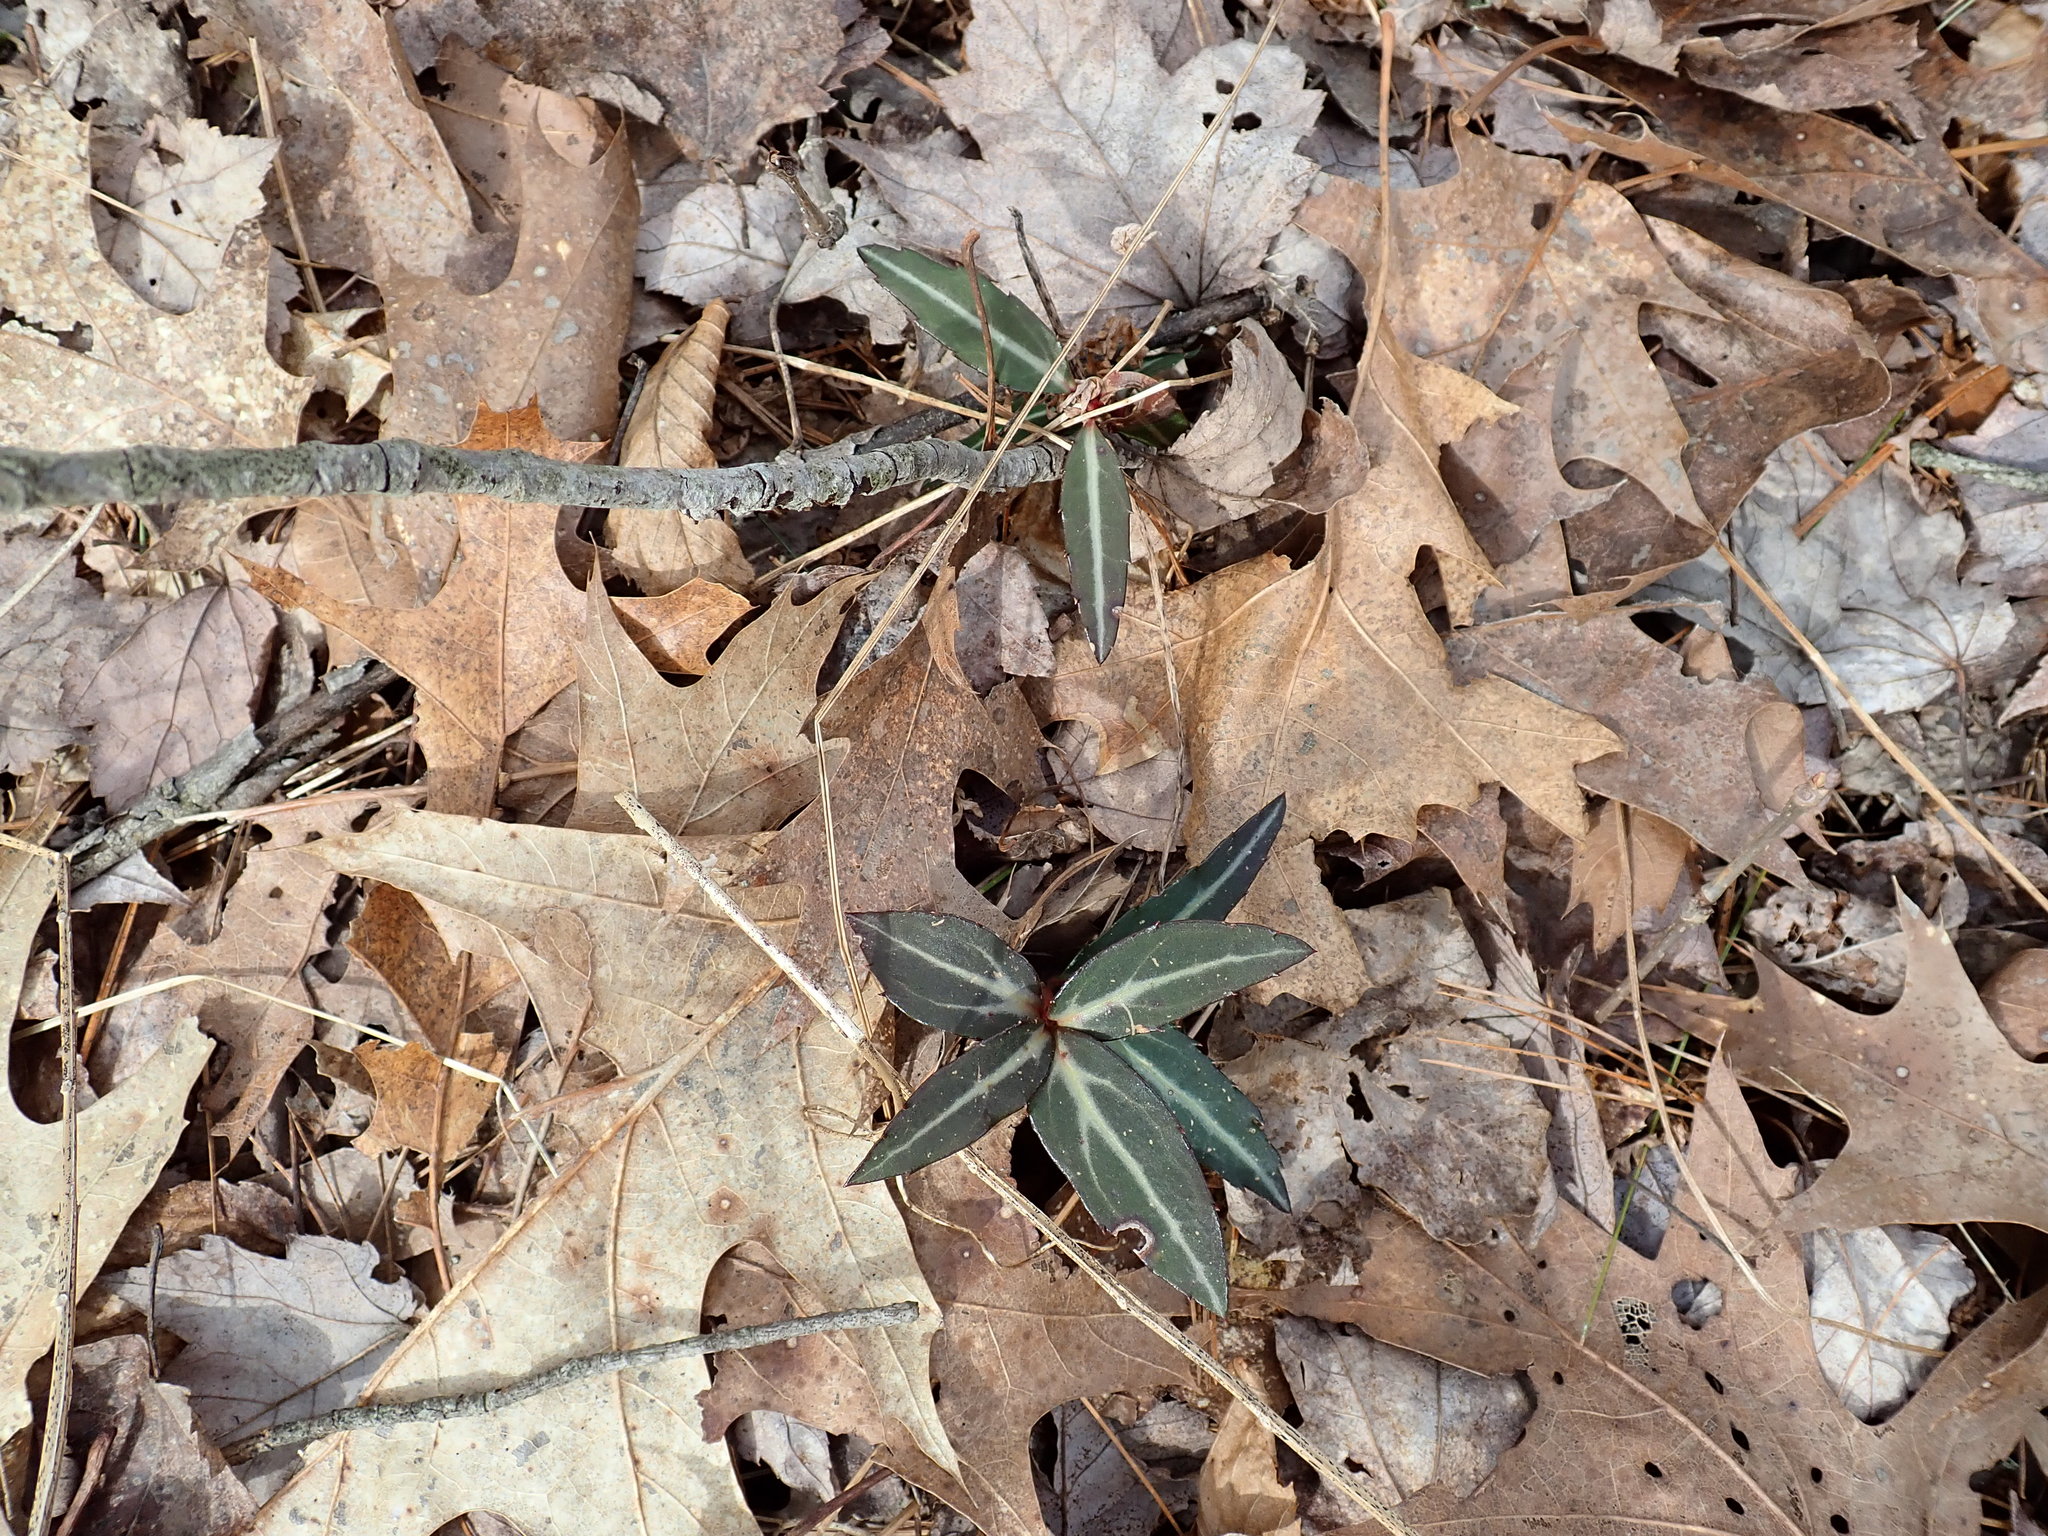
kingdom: Plantae
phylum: Tracheophyta
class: Magnoliopsida
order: Ericales
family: Ericaceae
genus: Chimaphila
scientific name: Chimaphila maculata
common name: Spotted pipsissewa
